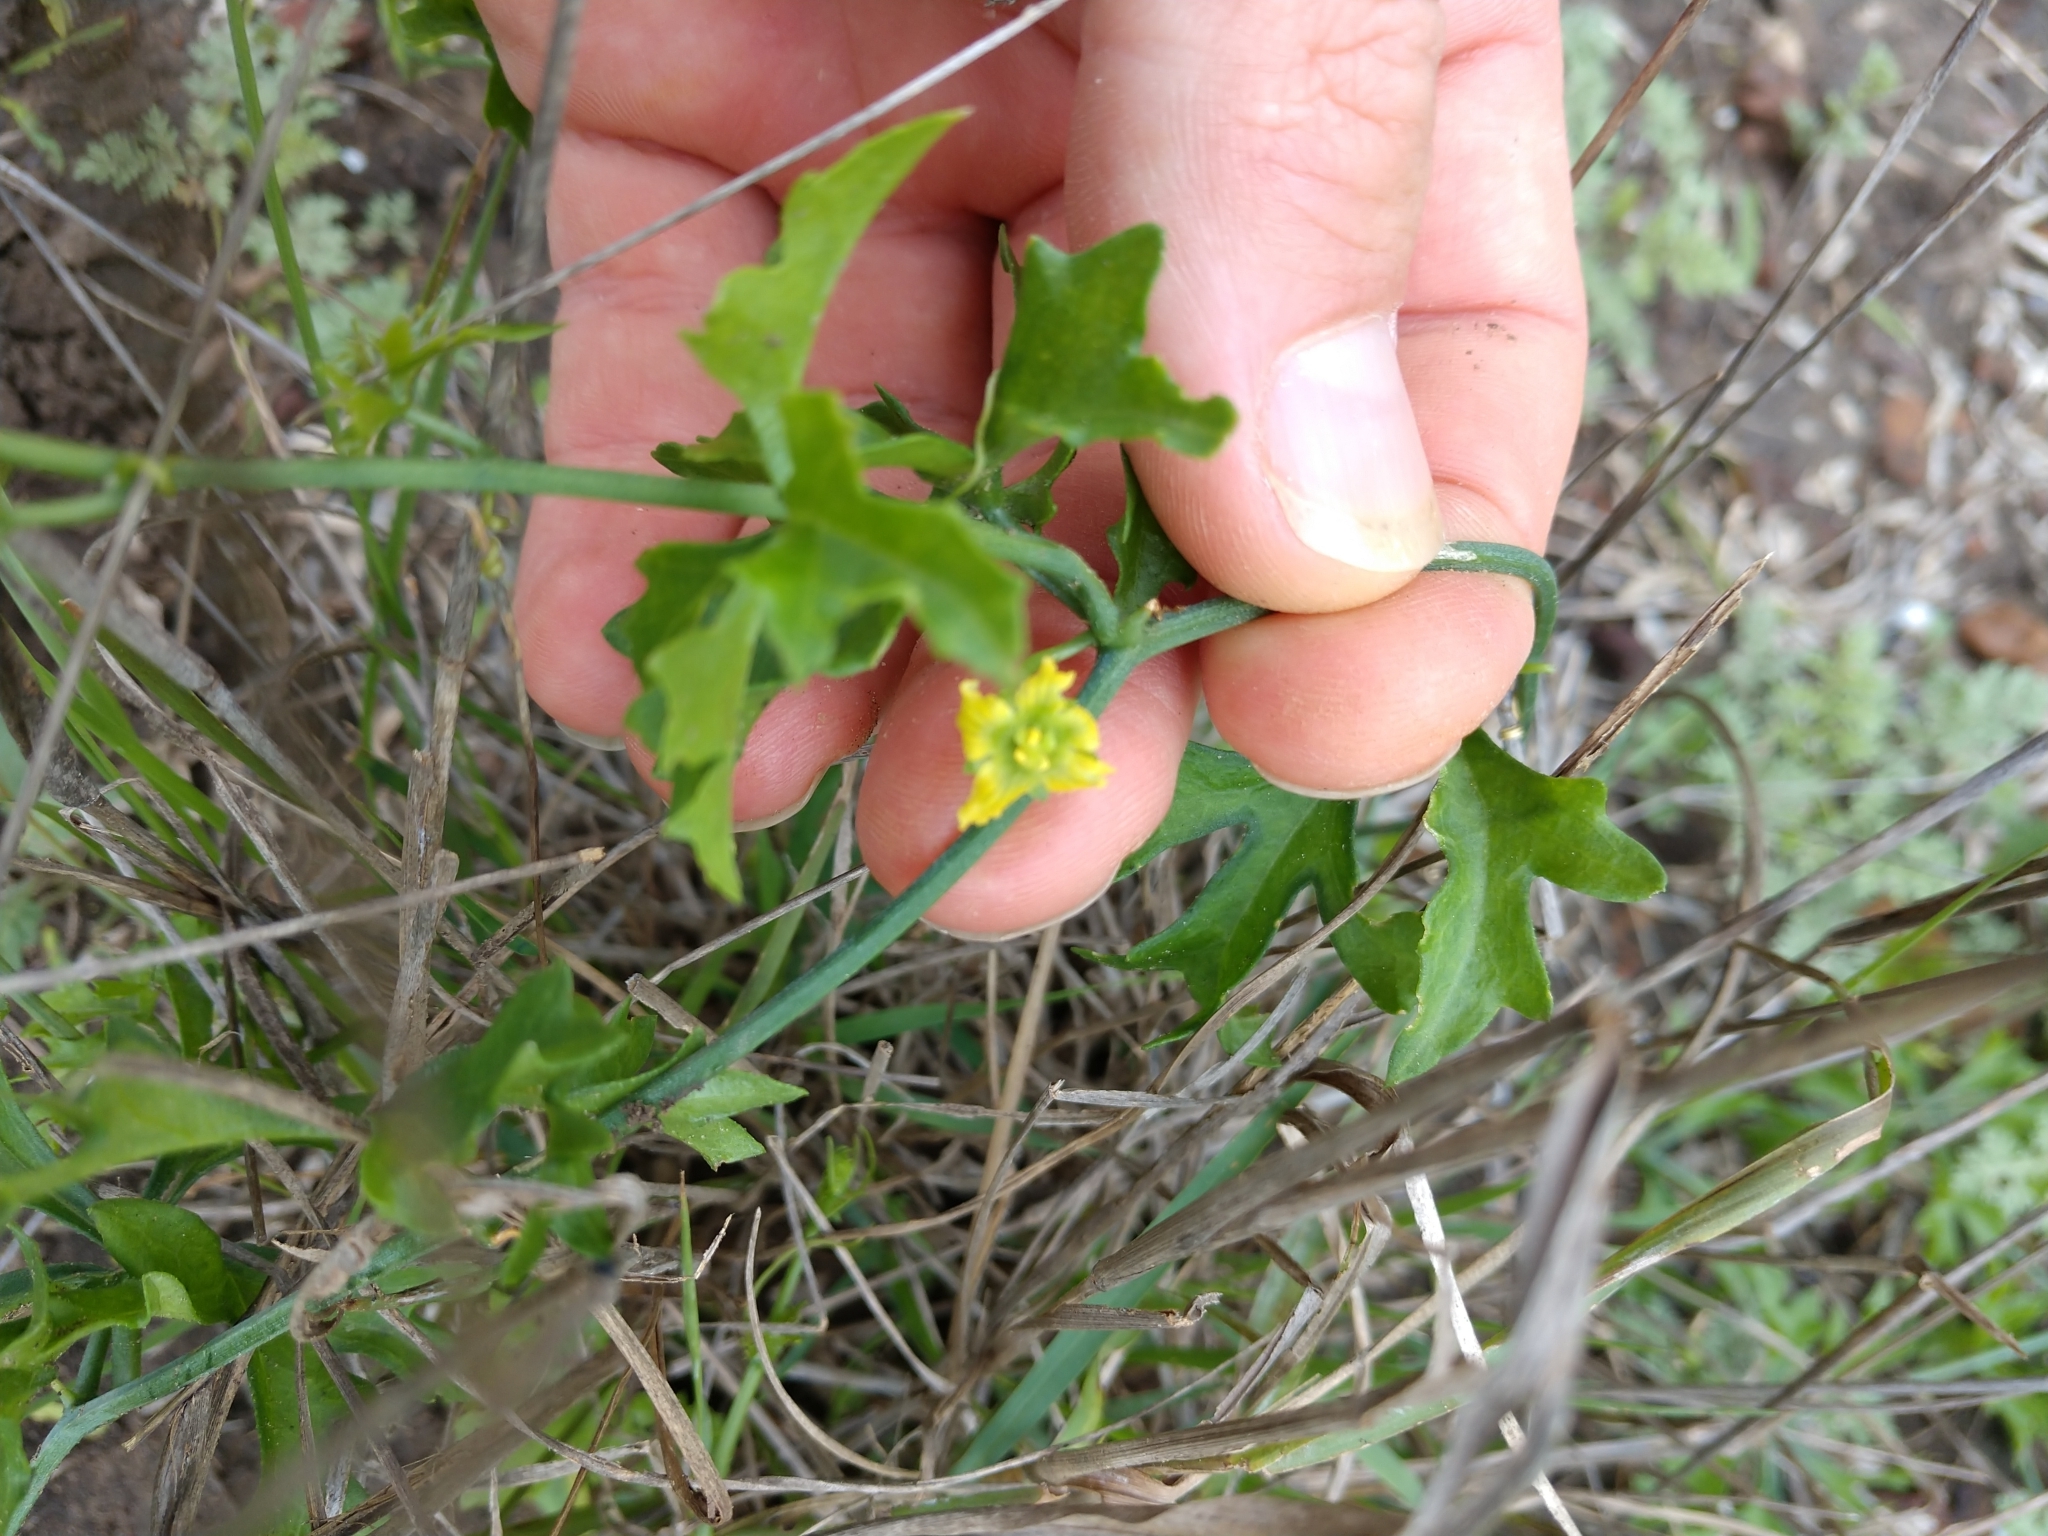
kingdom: Plantae
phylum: Tracheophyta
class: Magnoliopsida
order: Cucurbitales
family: Cucurbitaceae
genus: Ibervillea
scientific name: Ibervillea lindheimeri
